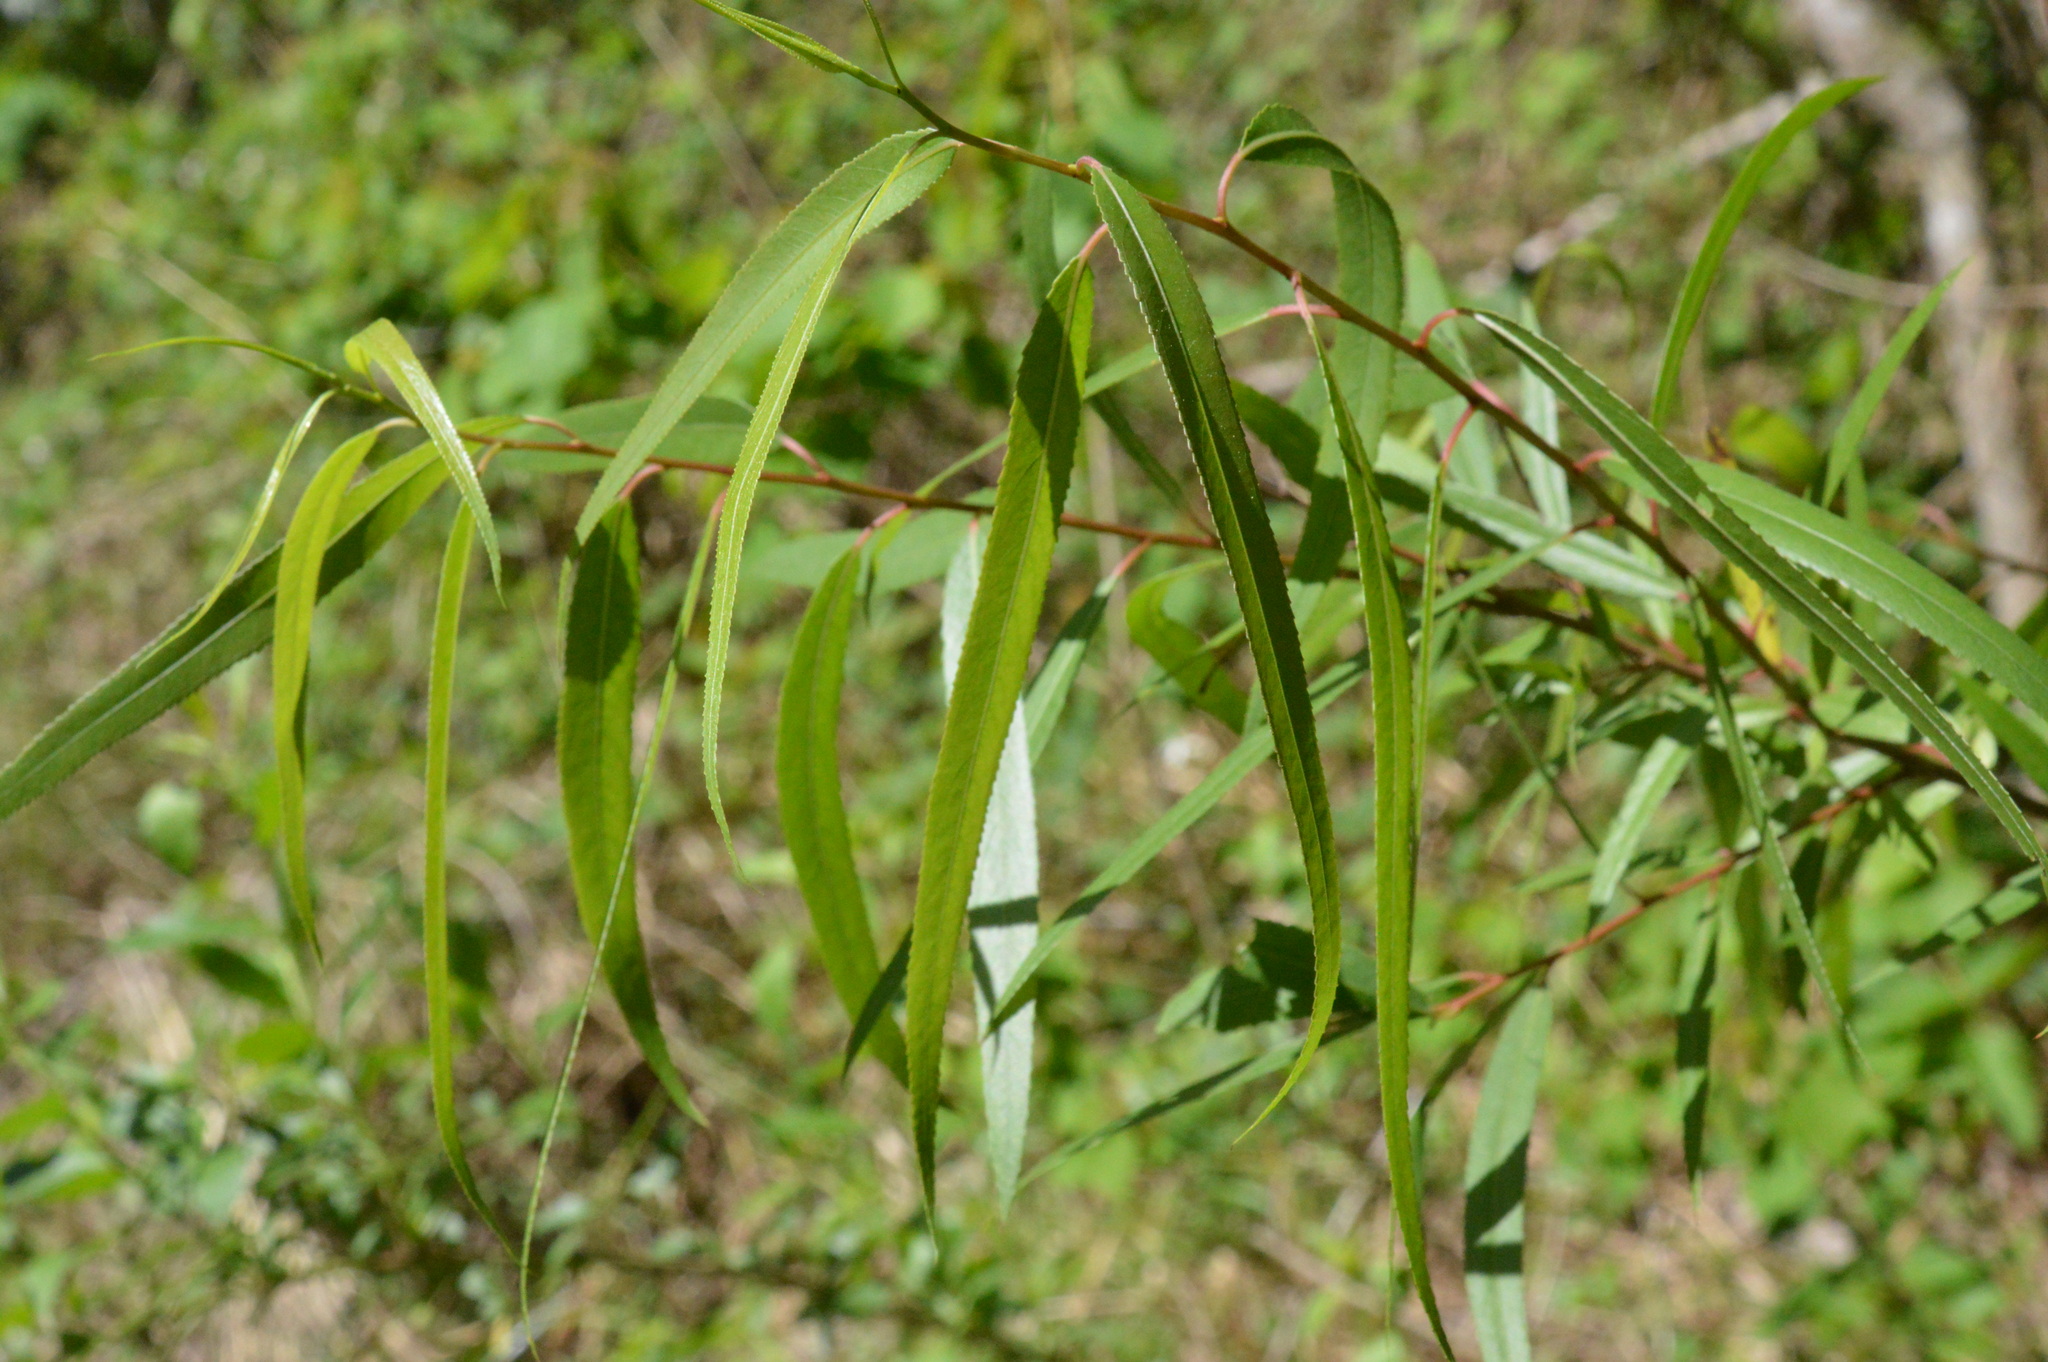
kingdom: Plantae
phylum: Tracheophyta
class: Magnoliopsida
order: Malpighiales
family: Salicaceae
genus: Salix
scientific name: Salix nigra
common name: Black willow
